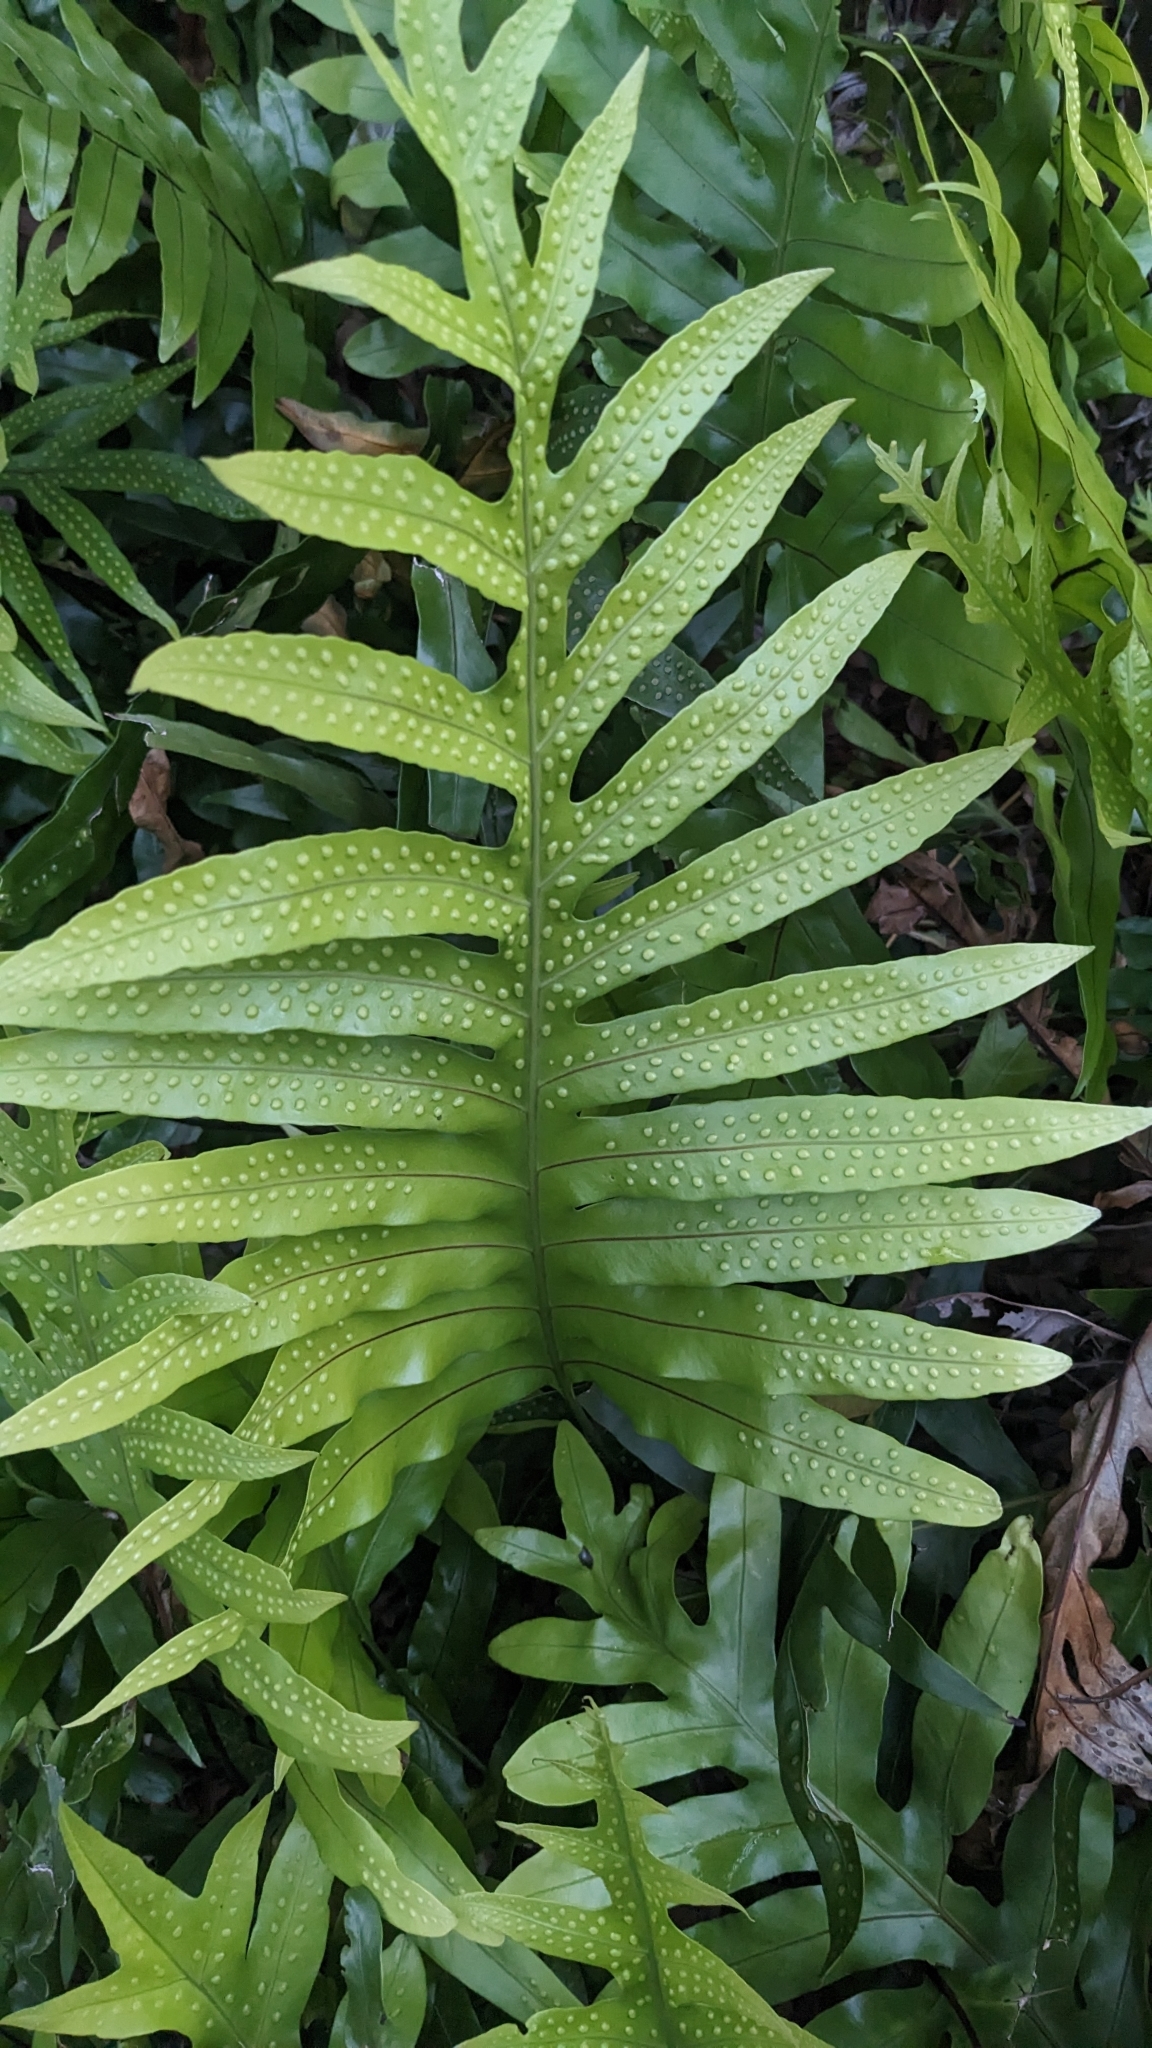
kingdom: Plantae
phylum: Tracheophyta
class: Polypodiopsida
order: Polypodiales
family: Polypodiaceae
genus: Microsorum
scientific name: Microsorum grossum
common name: Musk fern
